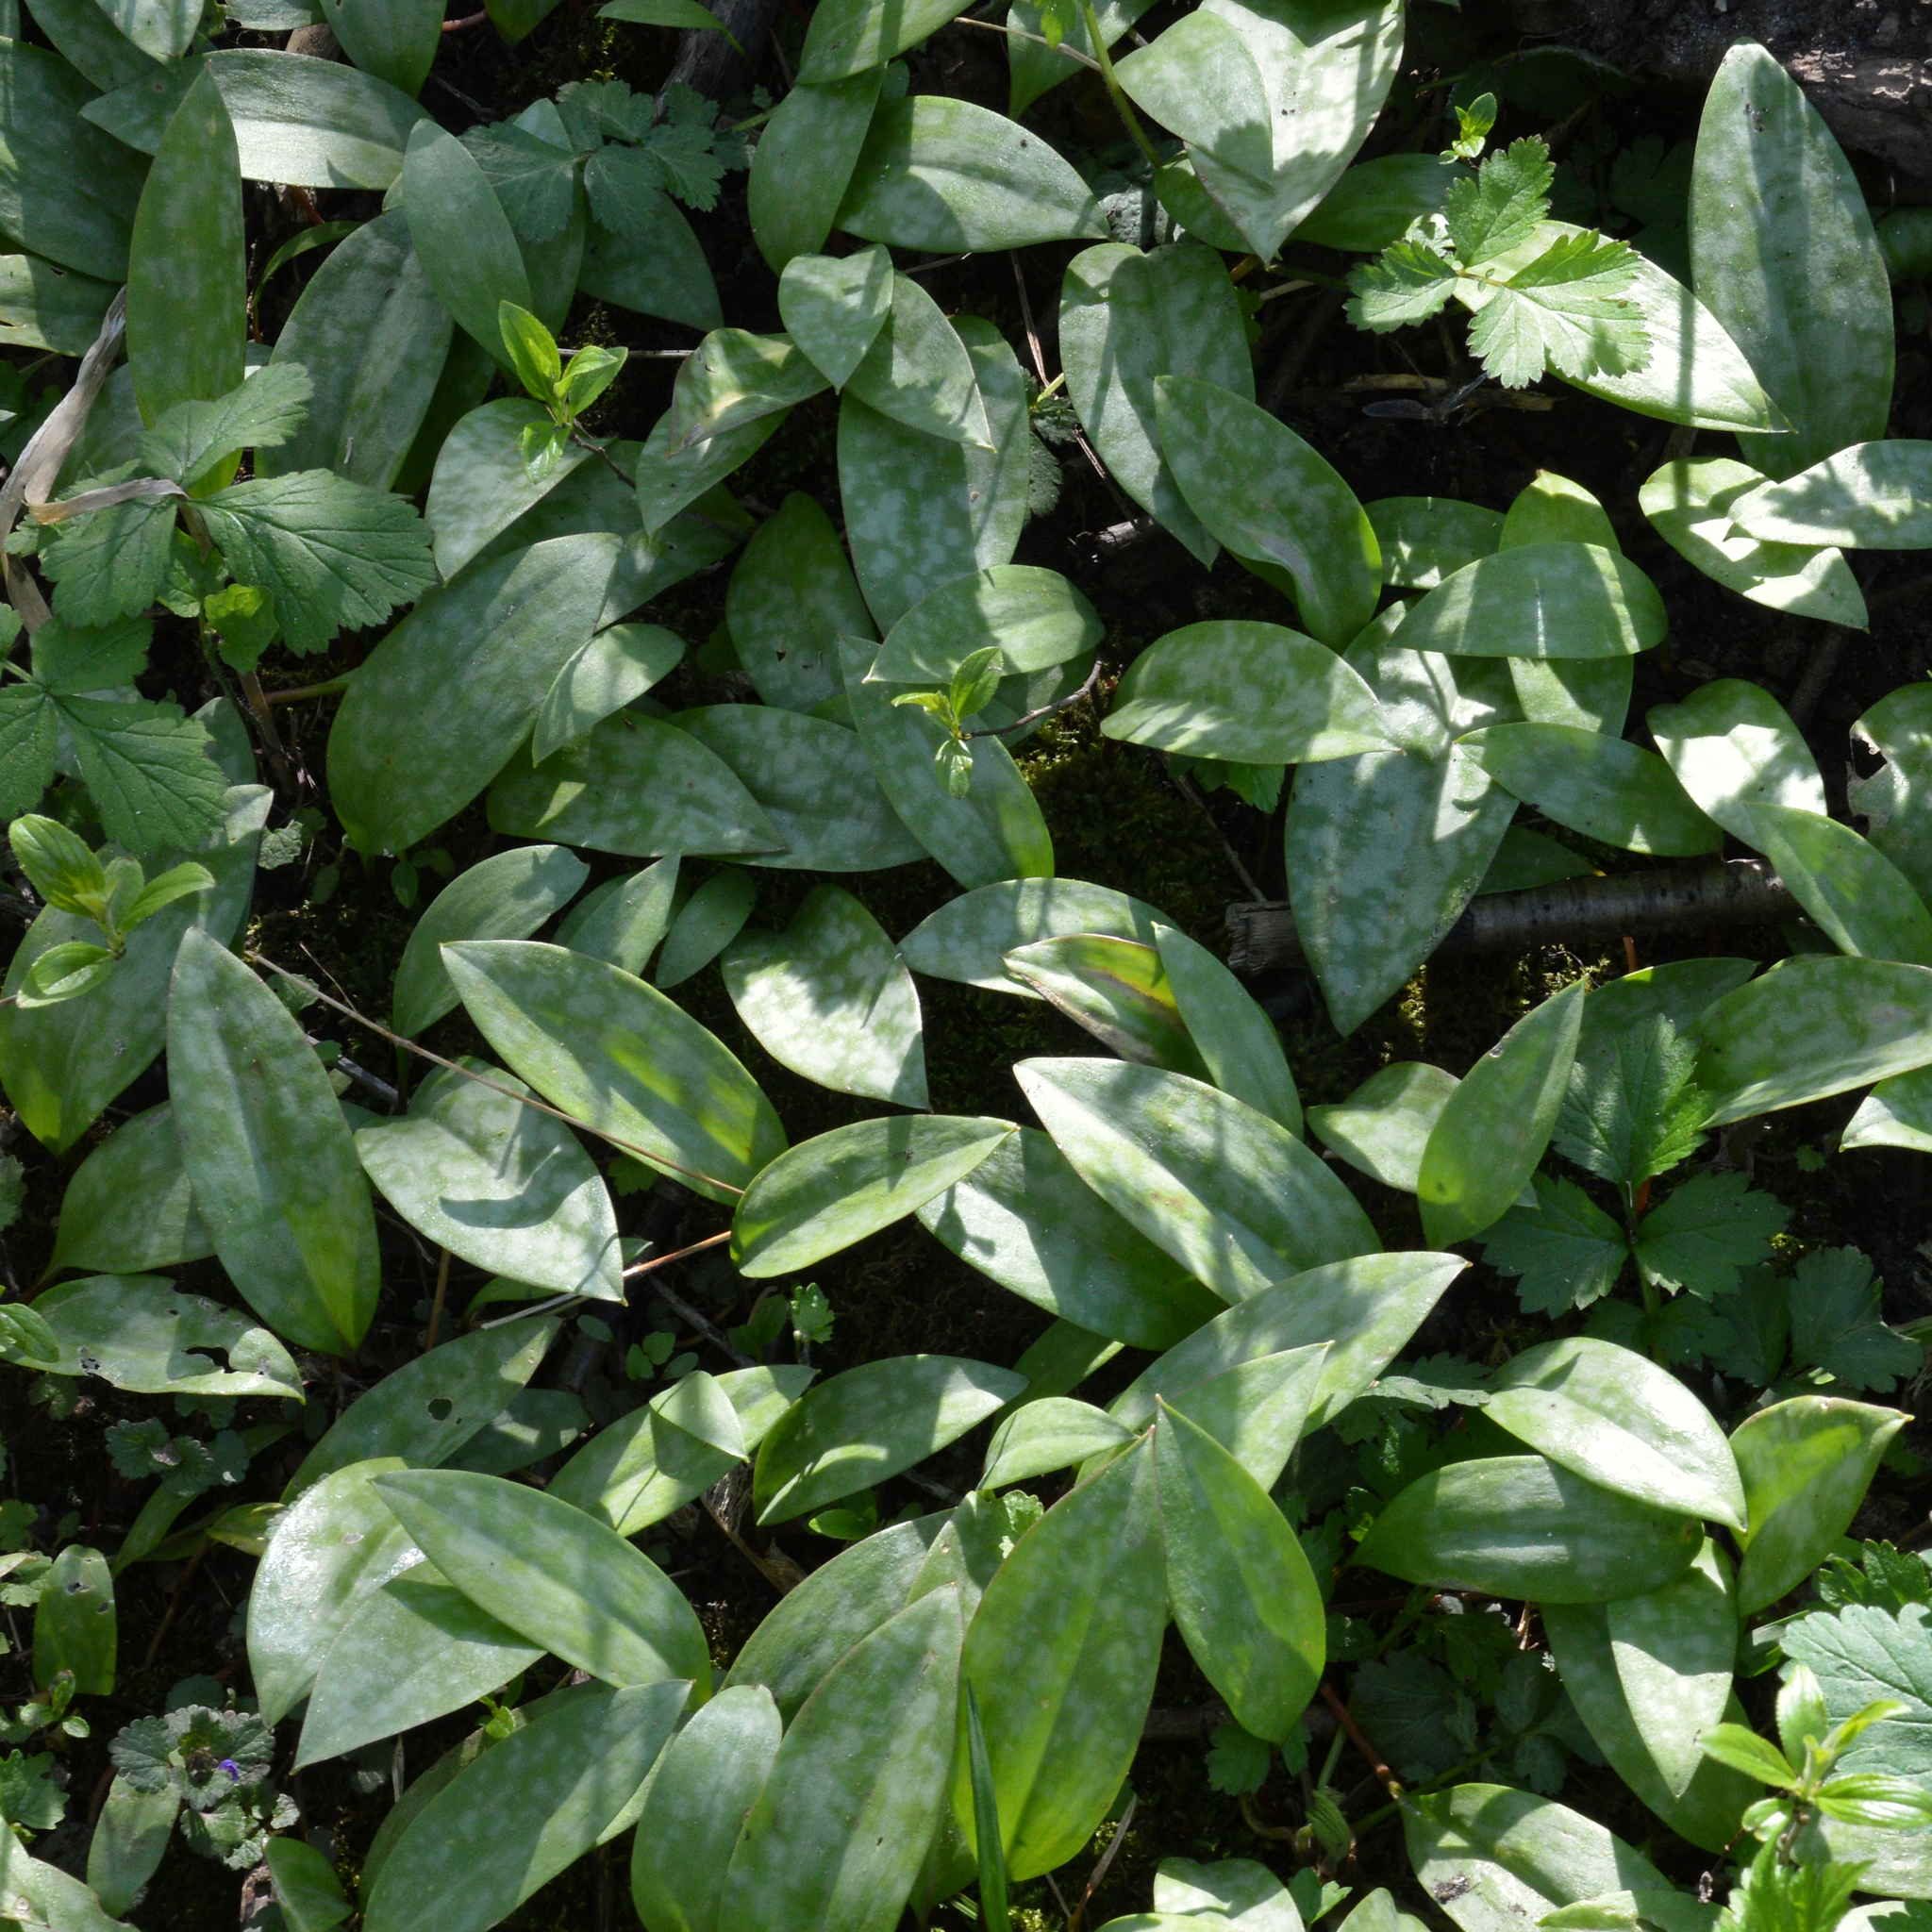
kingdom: Plantae
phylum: Tracheophyta
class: Liliopsida
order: Liliales
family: Liliaceae
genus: Erythronium
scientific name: Erythronium americanum
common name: Yellow adder's-tongue
